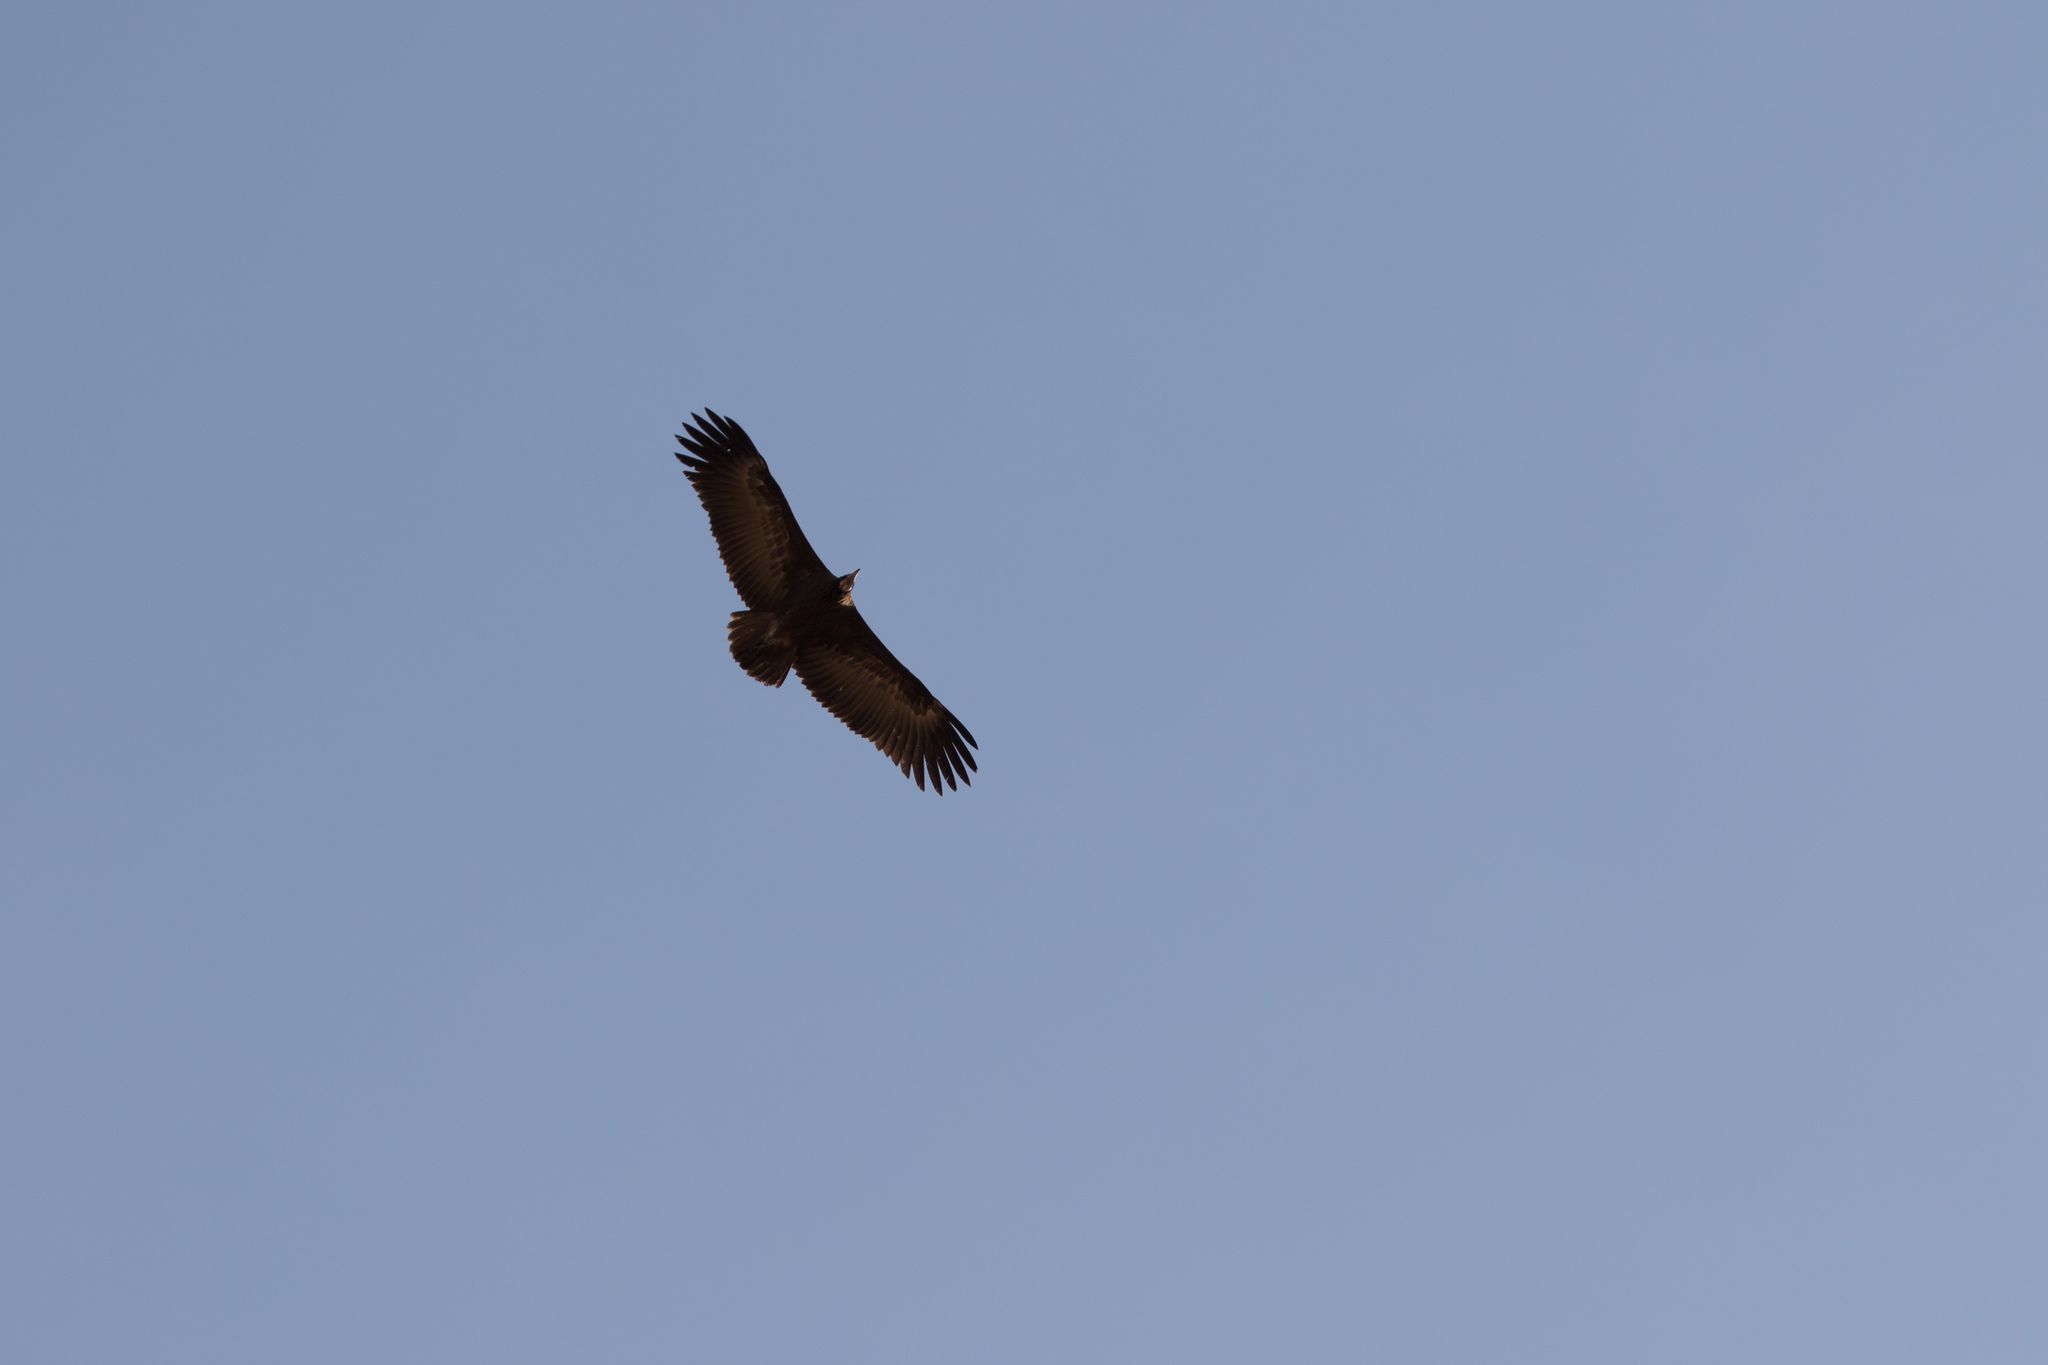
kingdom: Animalia
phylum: Chordata
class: Aves
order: Accipitriformes
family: Accipitridae
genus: Necrosyrtes
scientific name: Necrosyrtes monachus
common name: Hooded vulture
